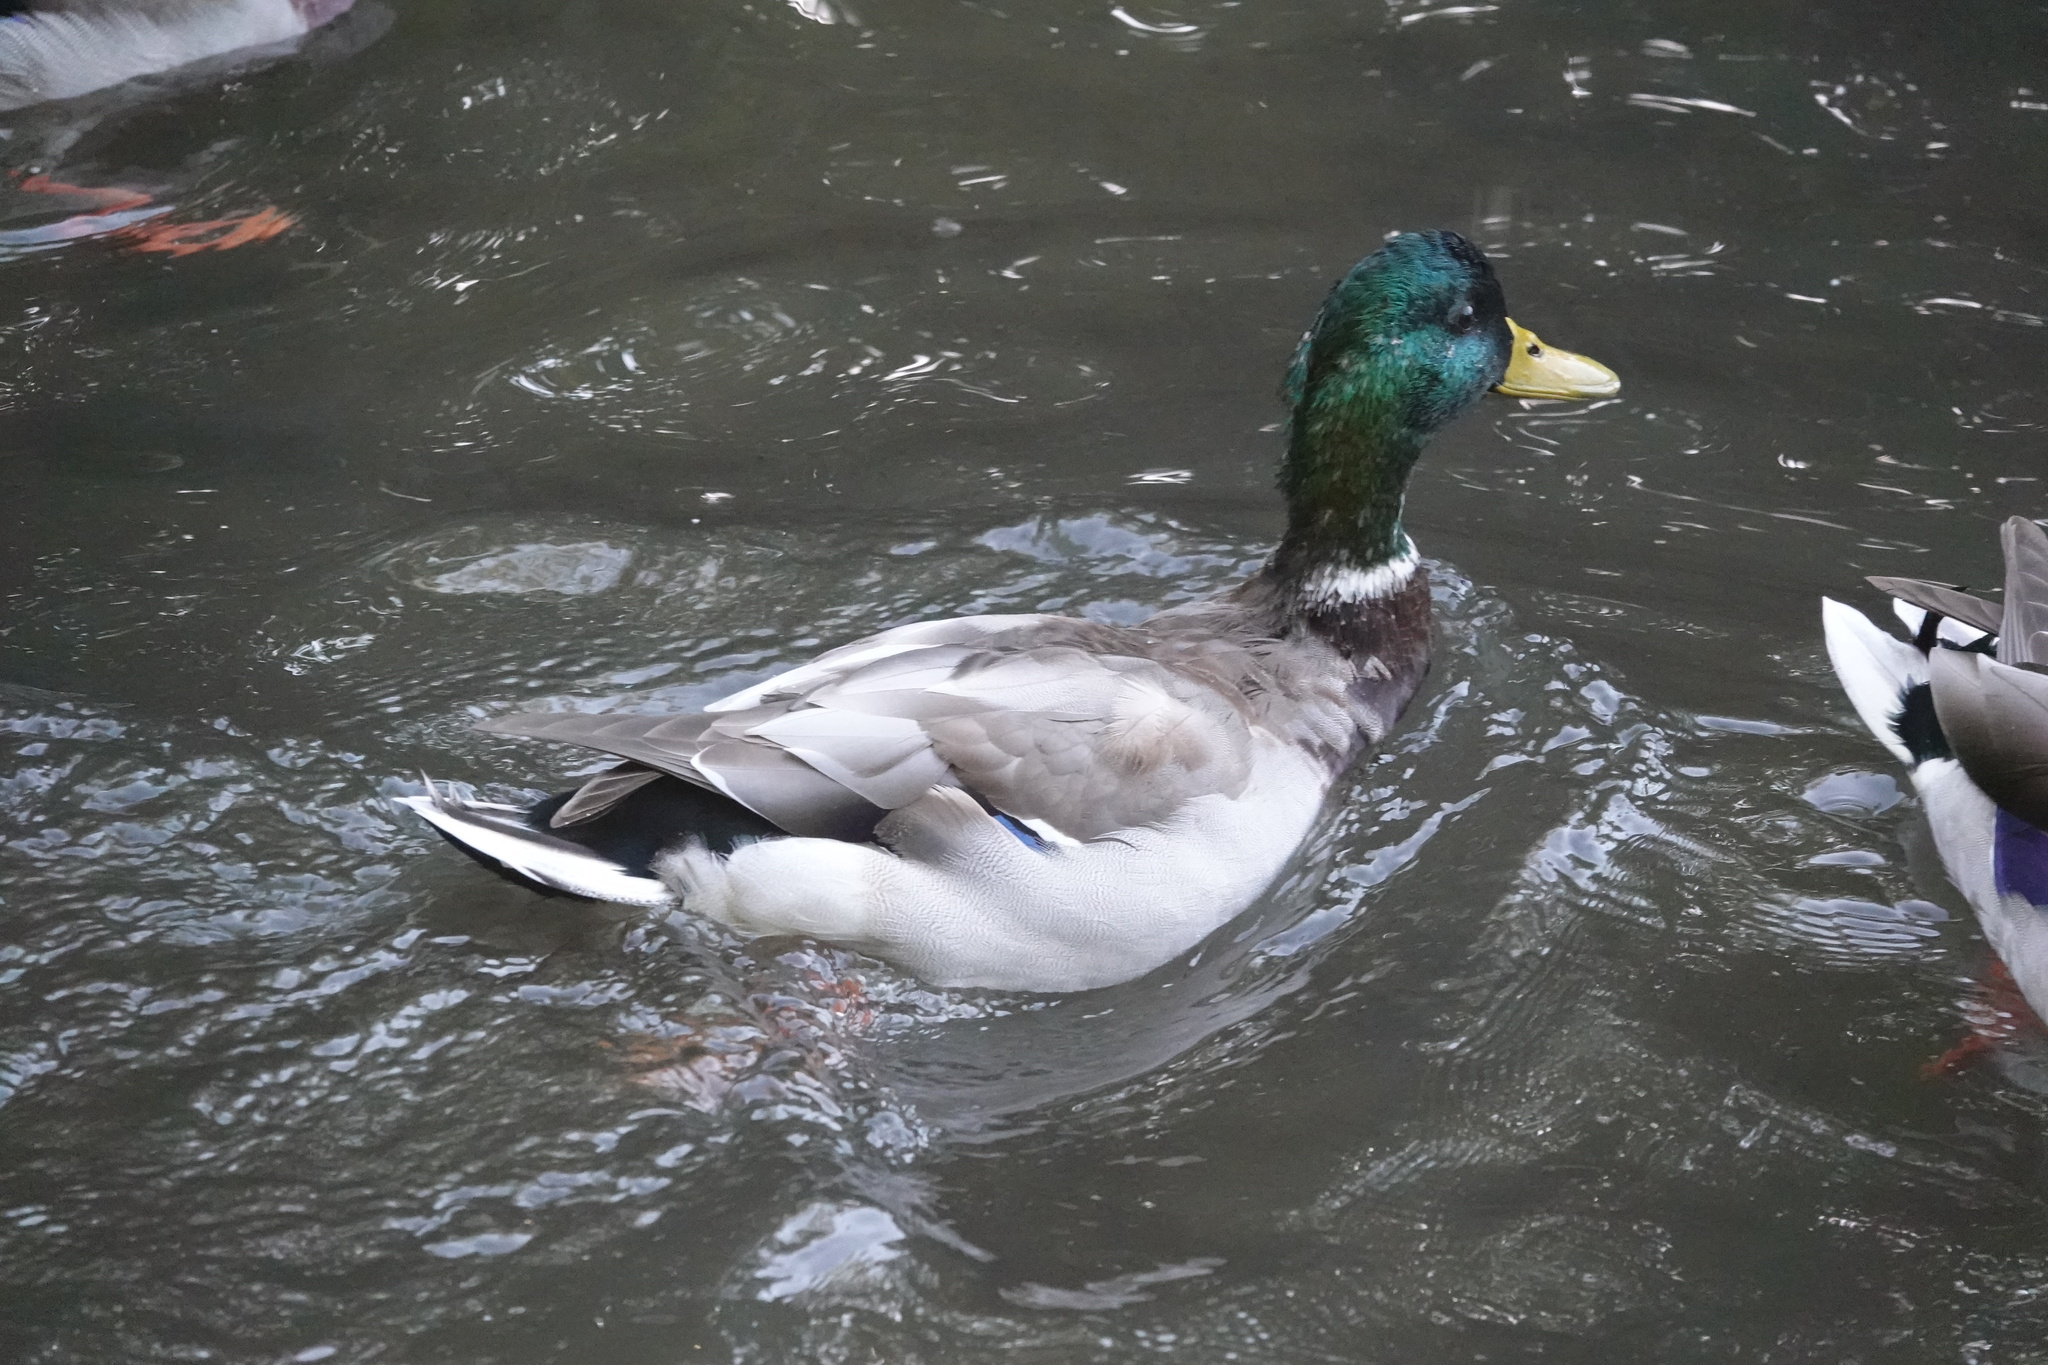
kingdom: Animalia
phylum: Chordata
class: Aves
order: Anseriformes
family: Anatidae
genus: Anas
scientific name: Anas platyrhynchos
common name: Mallard
